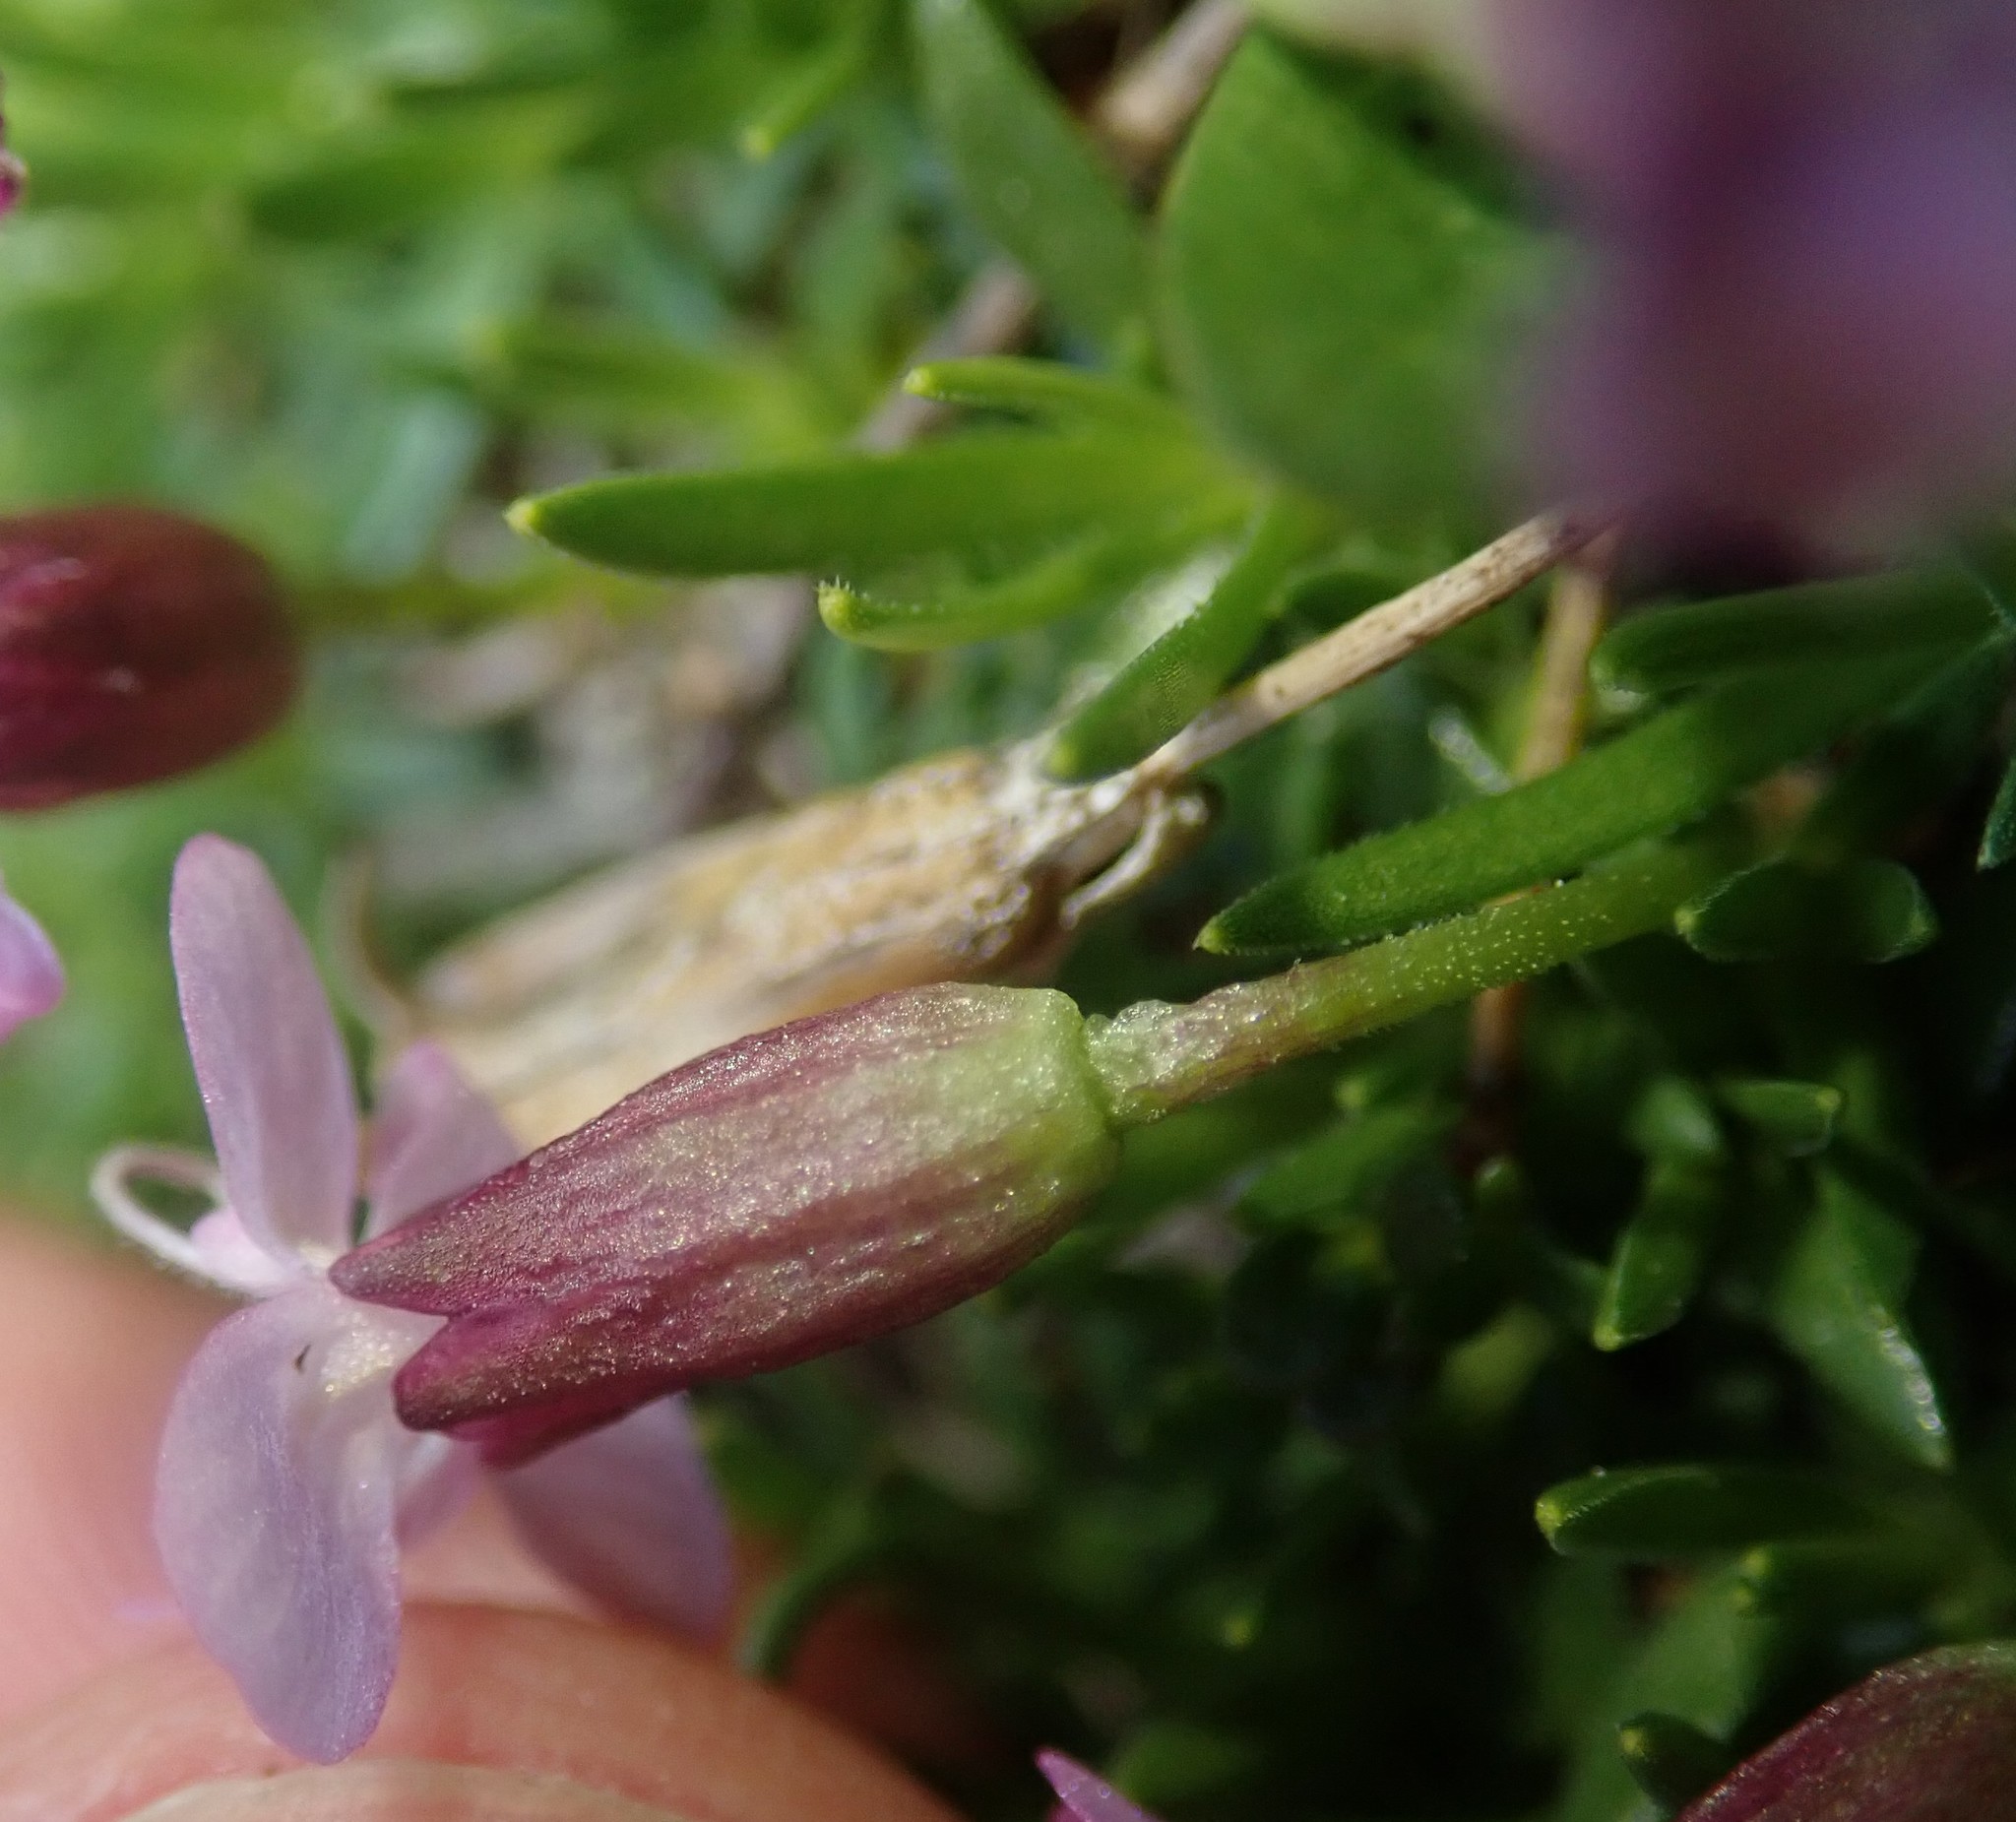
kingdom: Plantae
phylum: Tracheophyta
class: Magnoliopsida
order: Caryophyllales
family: Caryophyllaceae
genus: Silene
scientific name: Silene acaulis
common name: Moss campion
